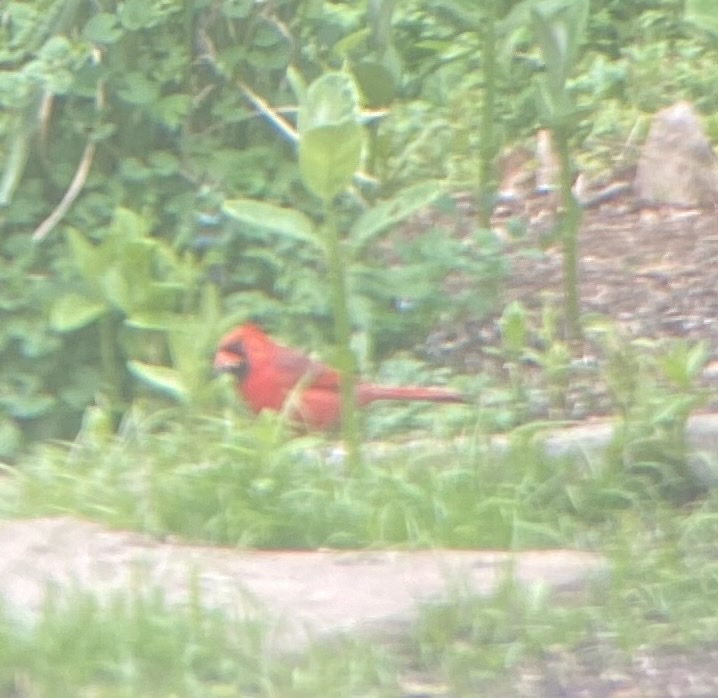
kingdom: Animalia
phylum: Chordata
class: Aves
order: Passeriformes
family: Cardinalidae
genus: Cardinalis
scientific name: Cardinalis cardinalis
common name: Northern cardinal
